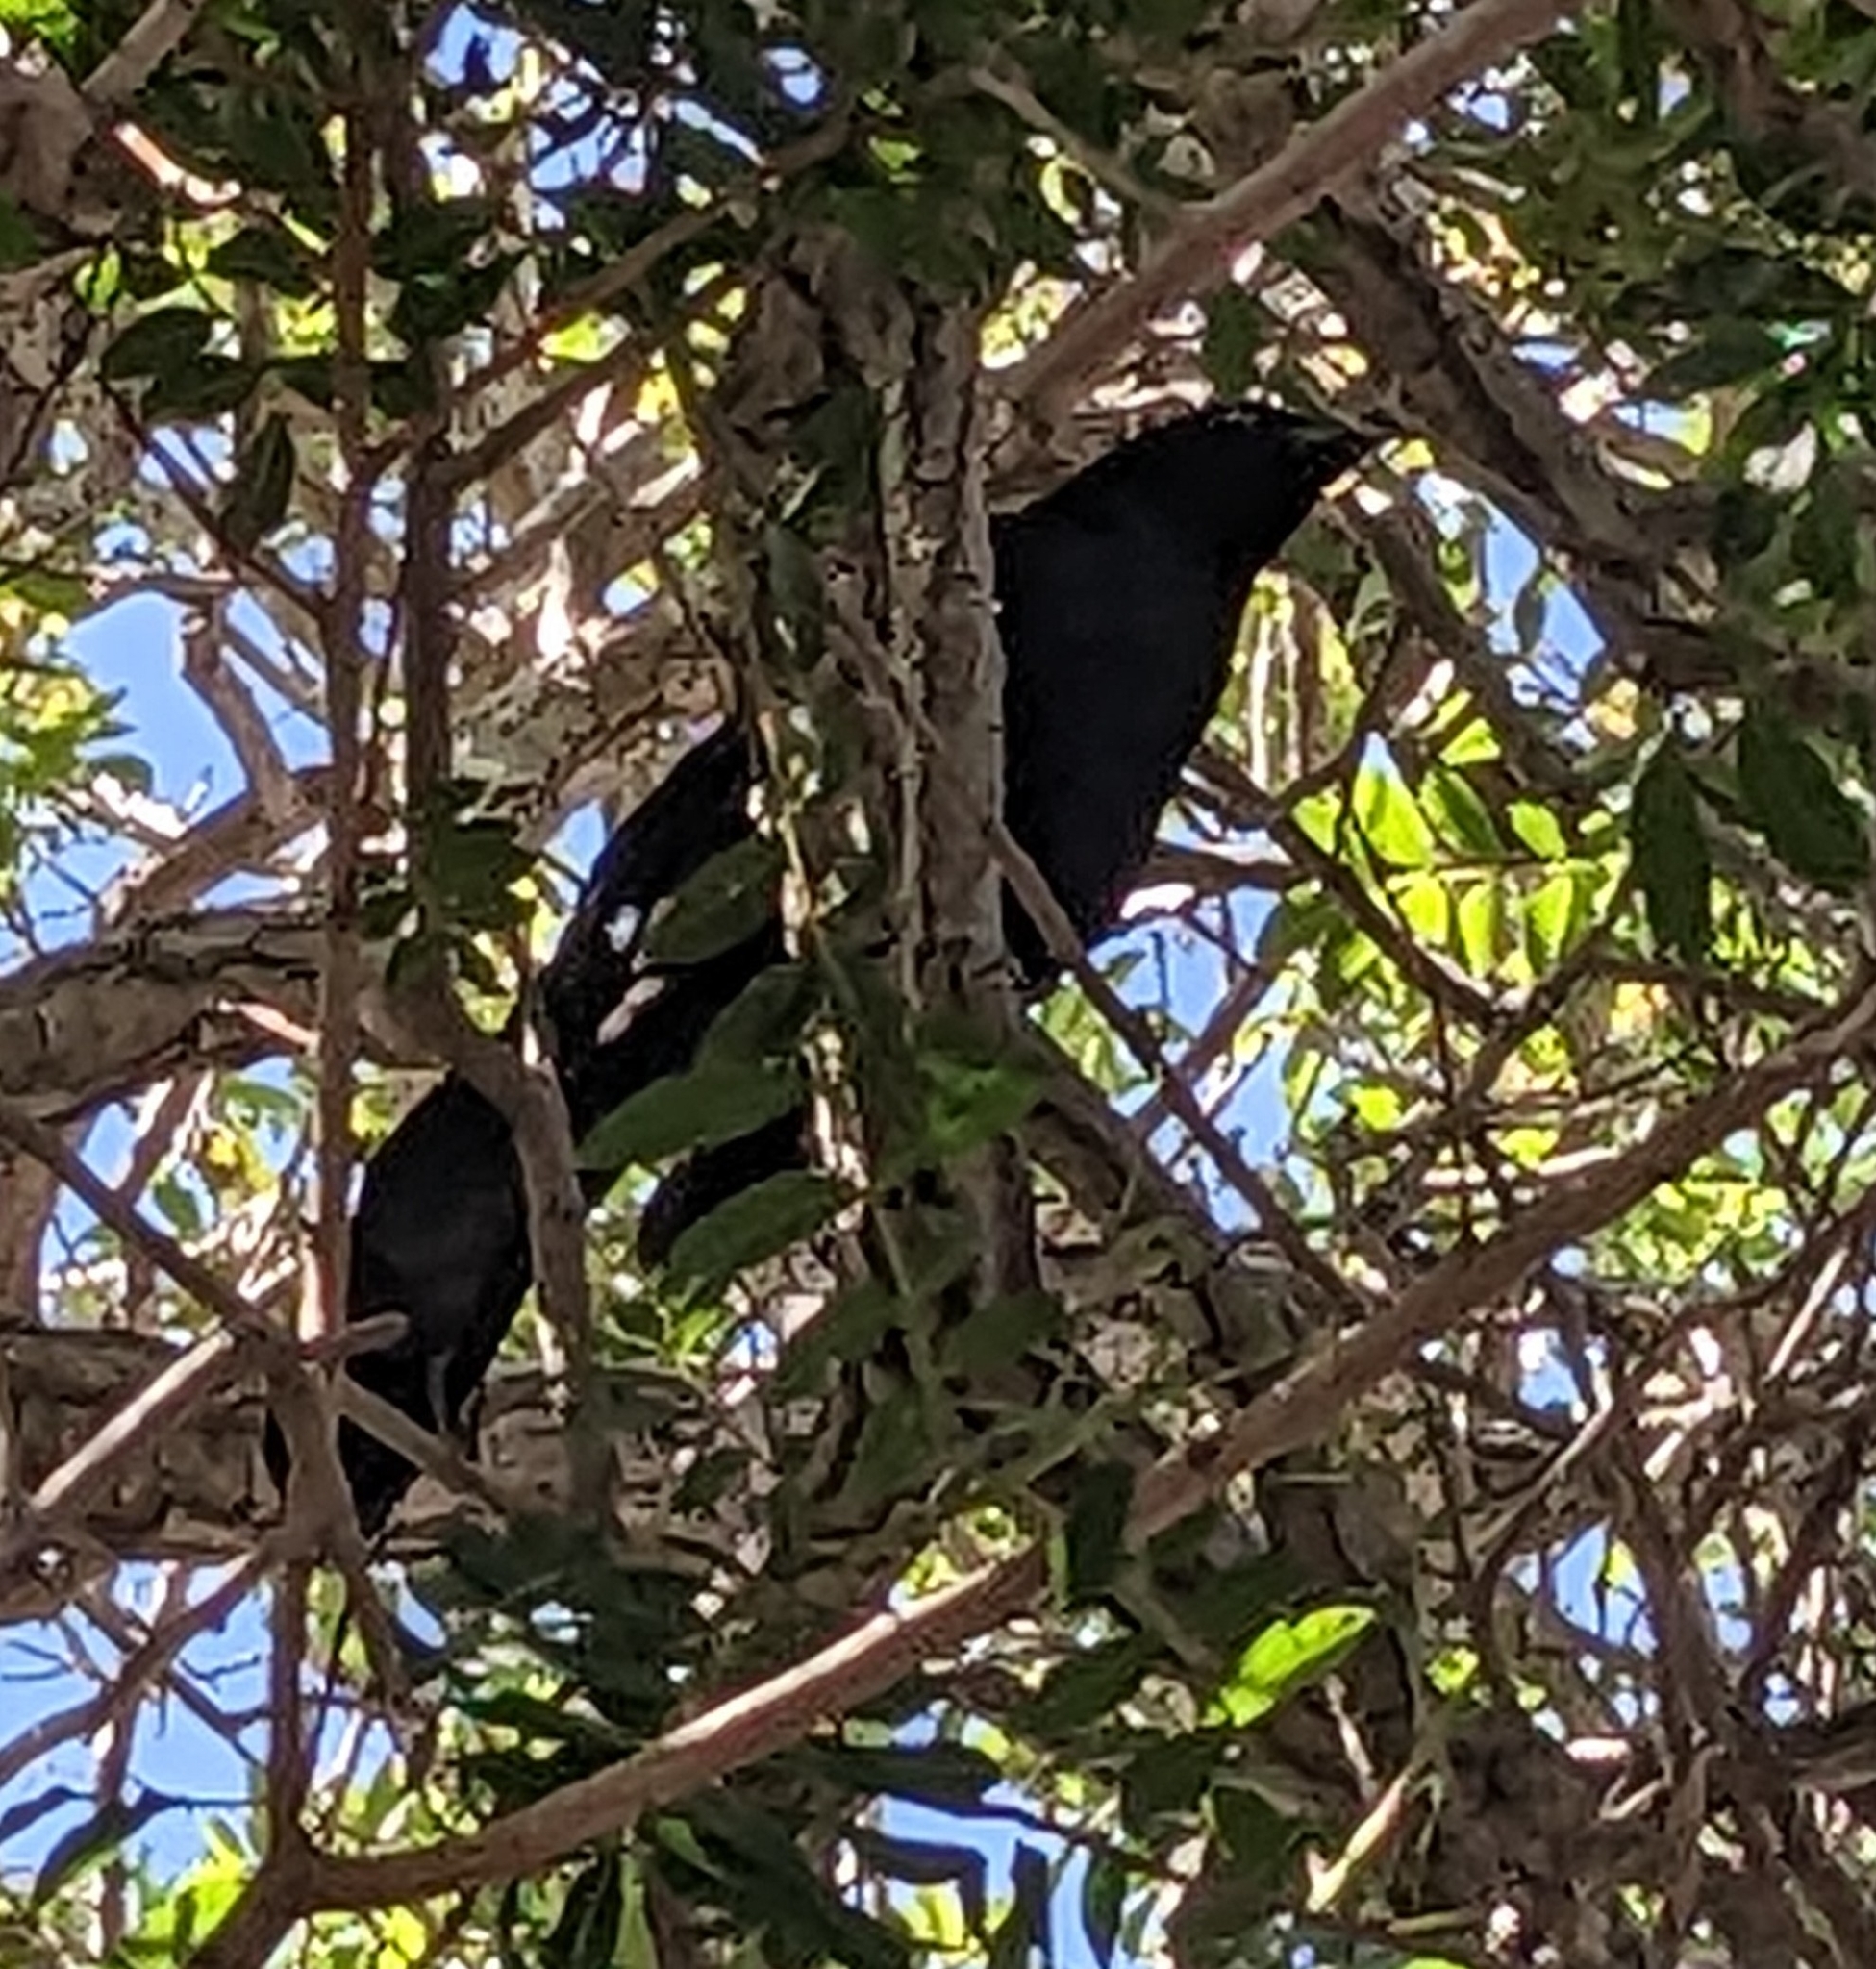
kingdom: Animalia
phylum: Chordata
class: Aves
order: Passeriformes
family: Icteridae
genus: Quiscalus
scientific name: Quiscalus mexicanus
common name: Great-tailed grackle
